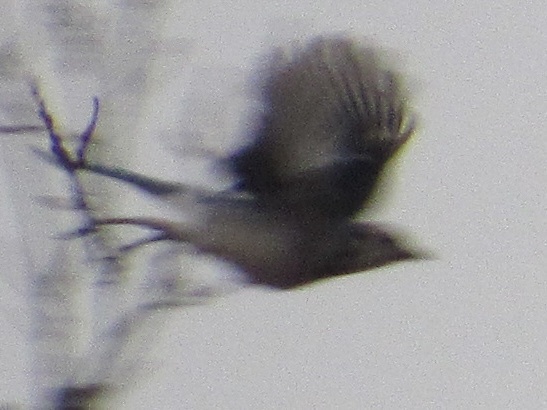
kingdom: Animalia
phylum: Chordata
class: Aves
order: Passeriformes
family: Corvidae
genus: Cyanocitta
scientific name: Cyanocitta cristata
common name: Blue jay
